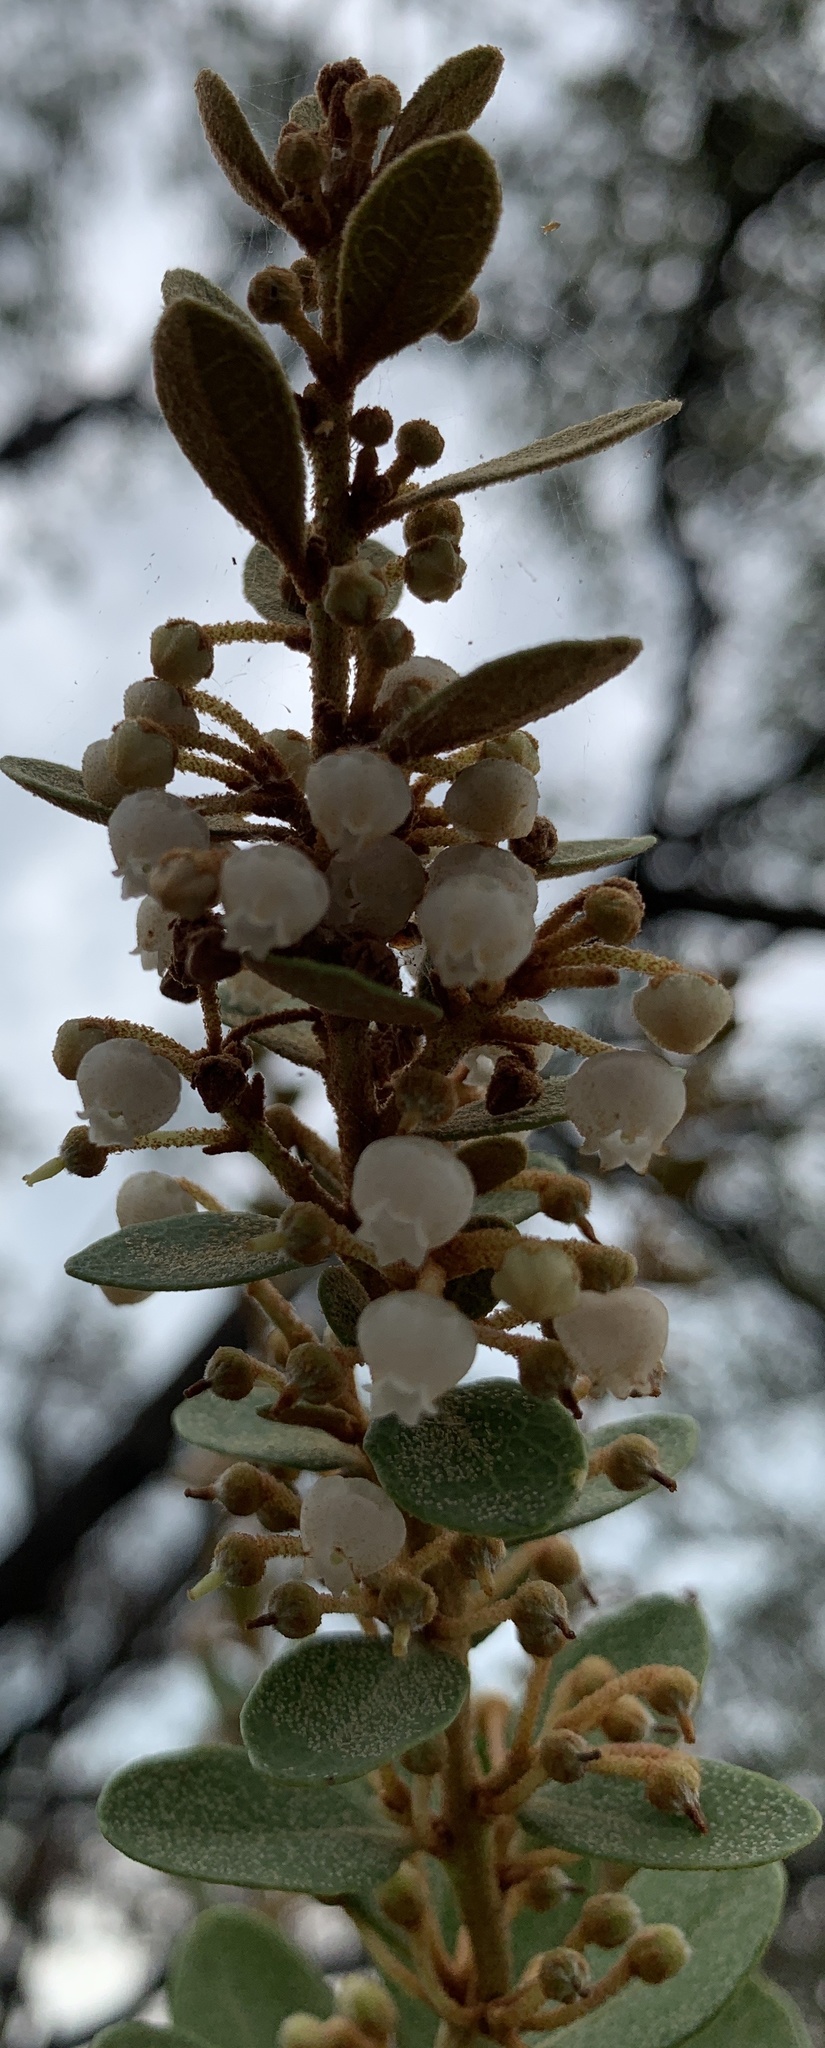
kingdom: Plantae
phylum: Tracheophyta
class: Magnoliopsida
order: Ericales
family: Ericaceae
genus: Lyonia
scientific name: Lyonia fruticosa
